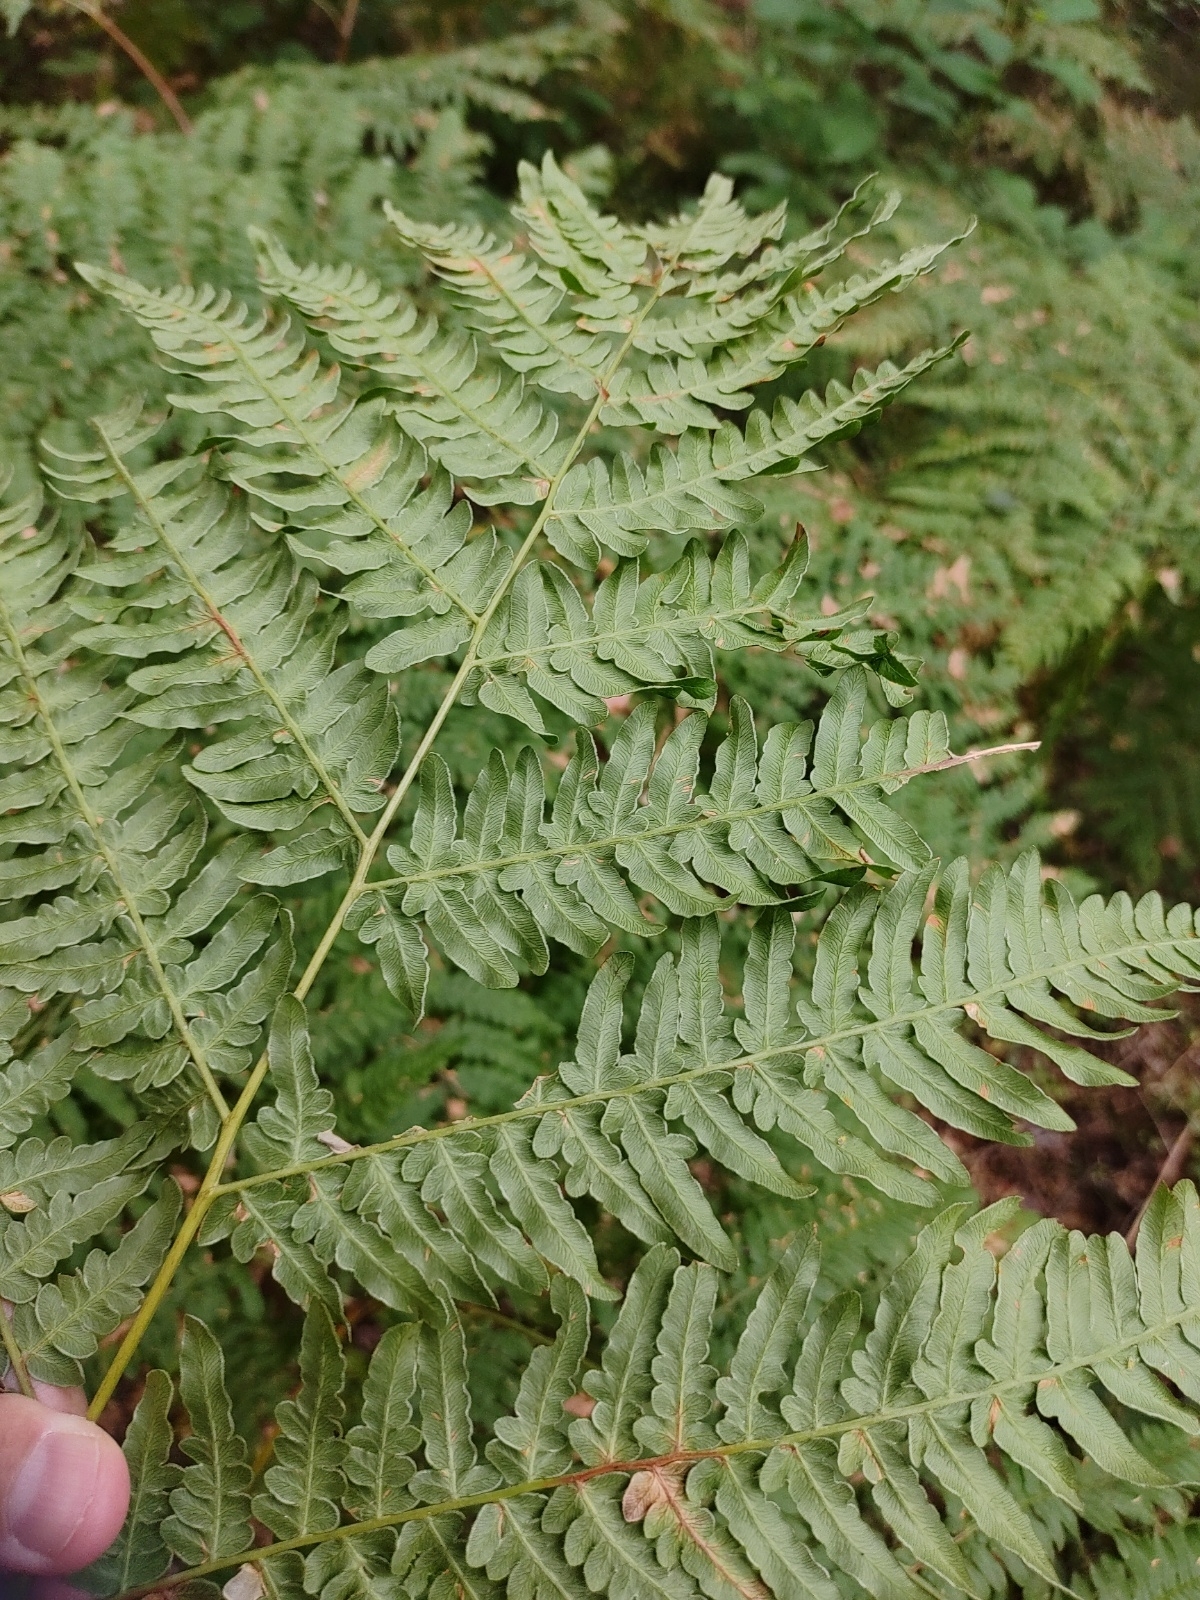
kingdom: Plantae
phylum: Tracheophyta
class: Polypodiopsida
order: Polypodiales
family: Dennstaedtiaceae
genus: Pteridium
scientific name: Pteridium aquilinum
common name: Bracken
